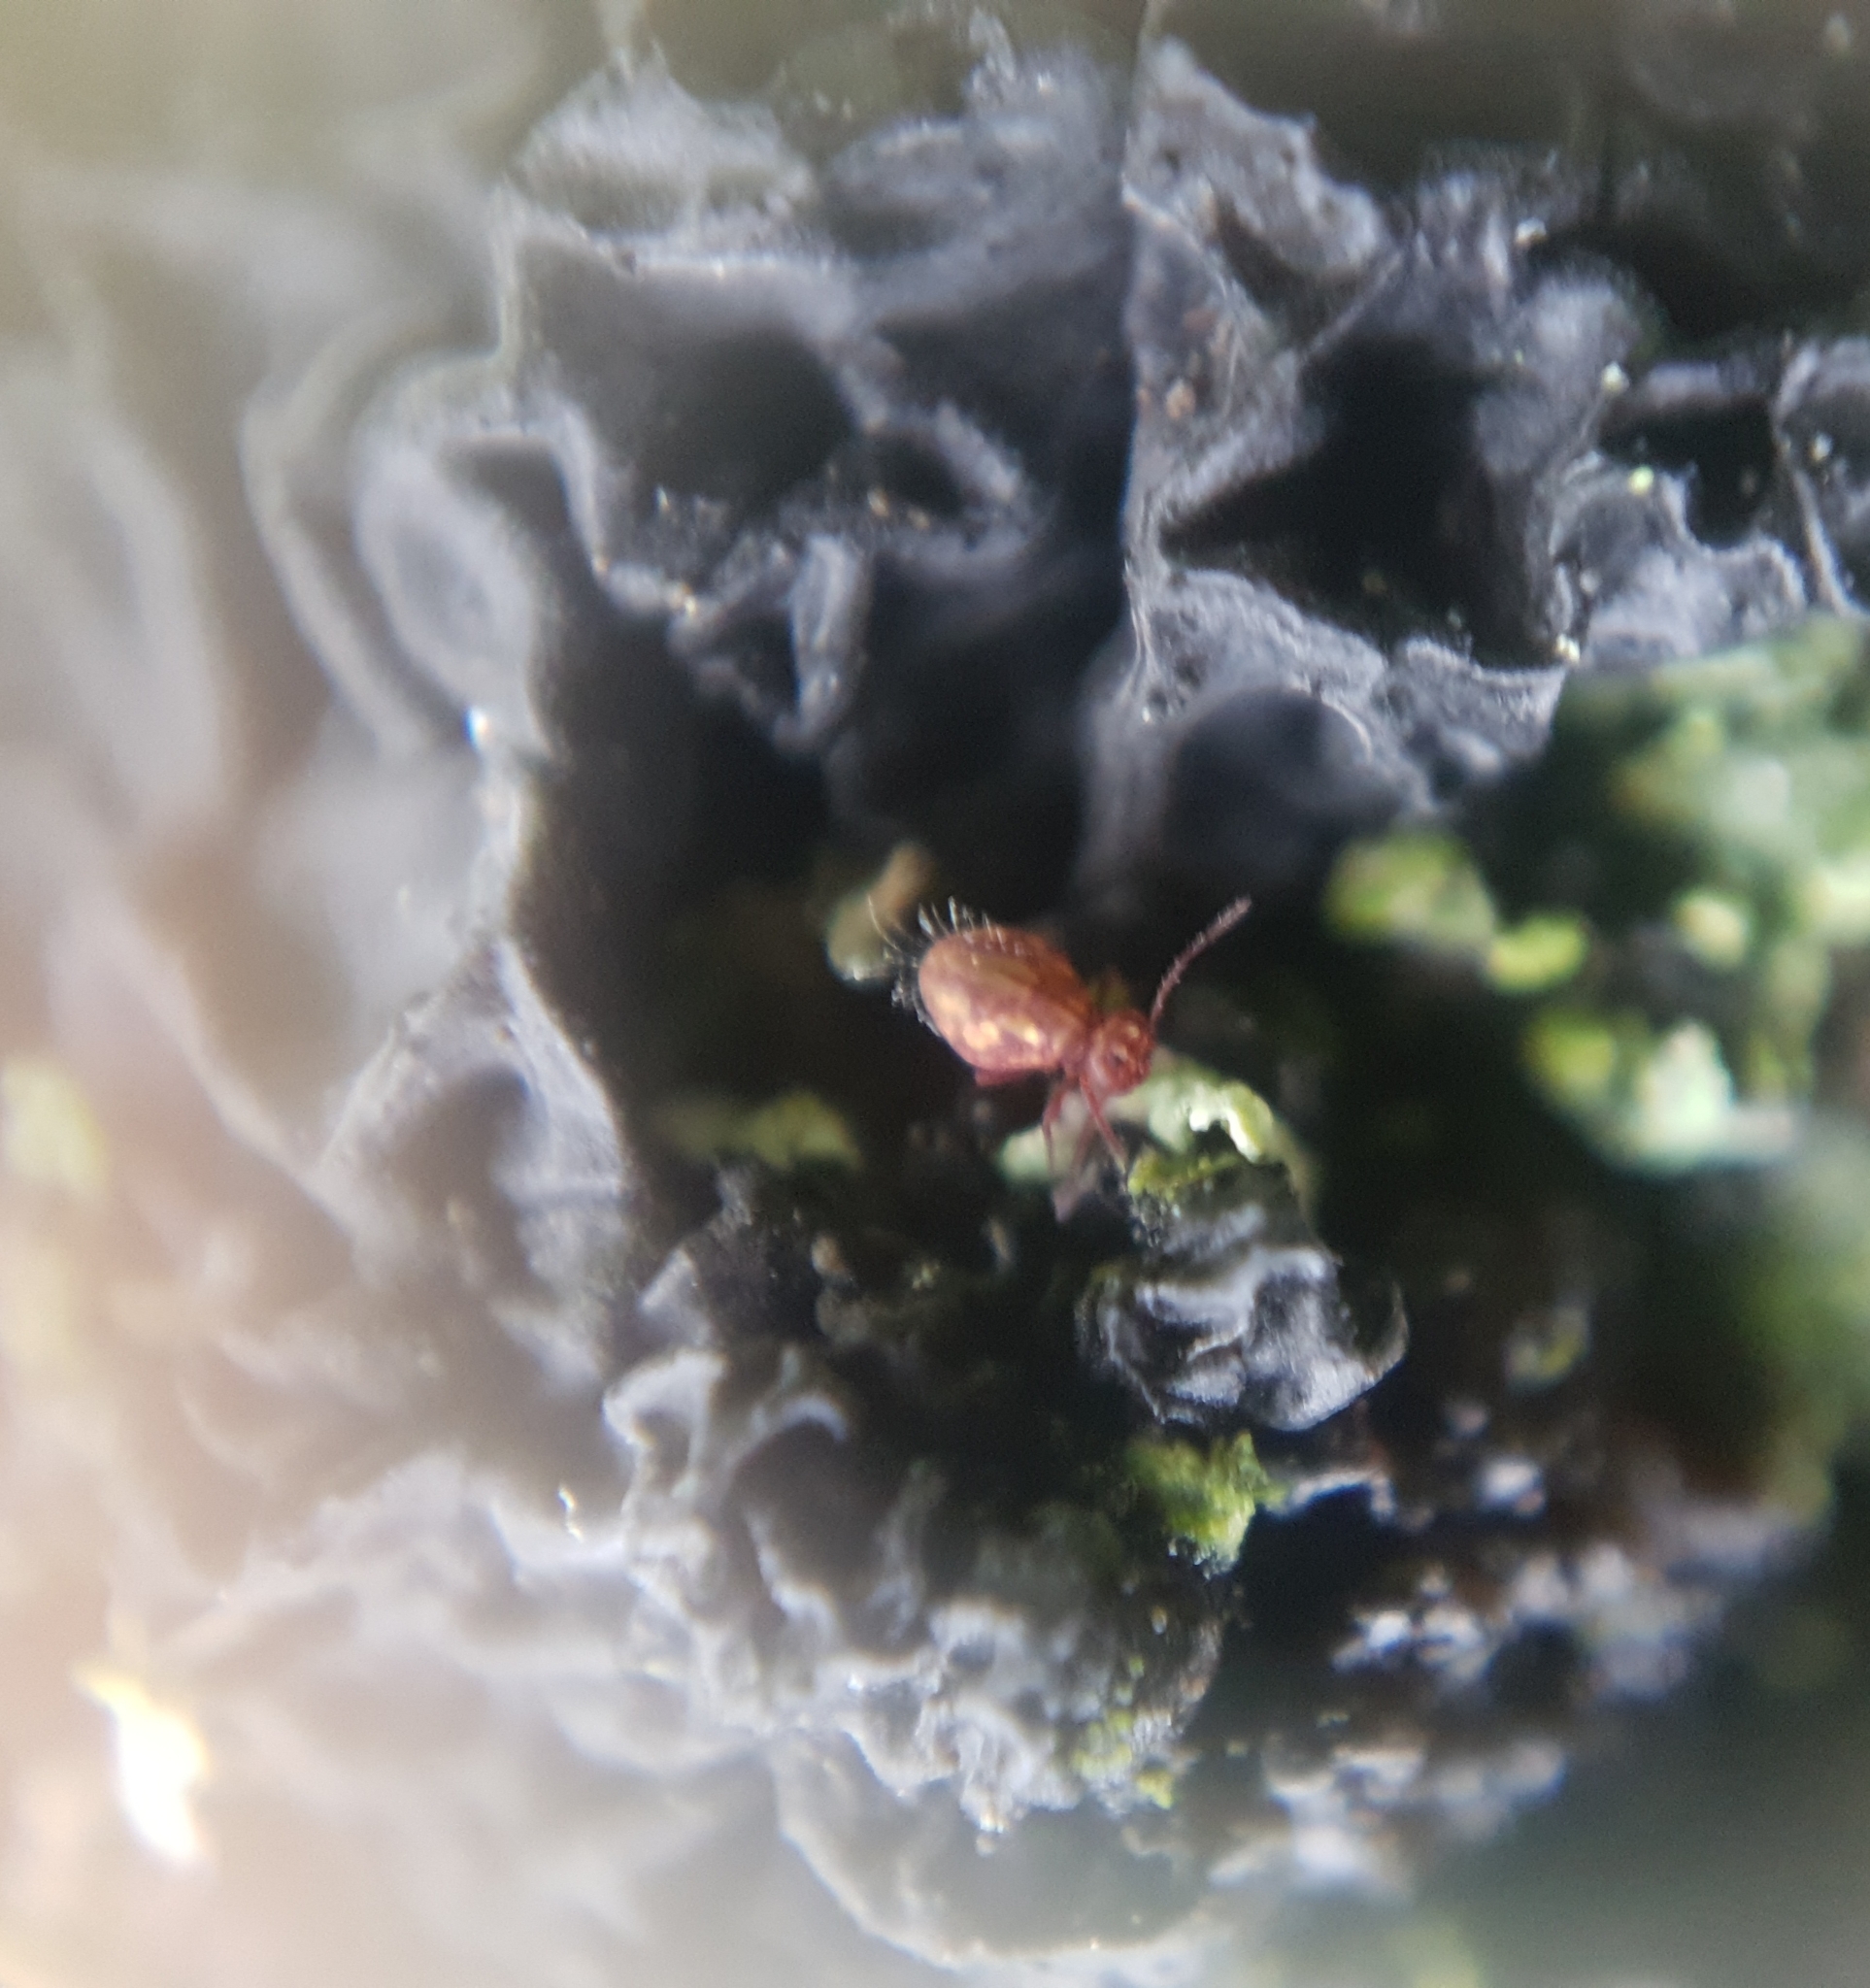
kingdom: Animalia
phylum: Arthropoda
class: Collembola
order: Symphypleona
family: Dicyrtomidae
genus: Dicyrtoma
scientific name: Dicyrtoma fusca
